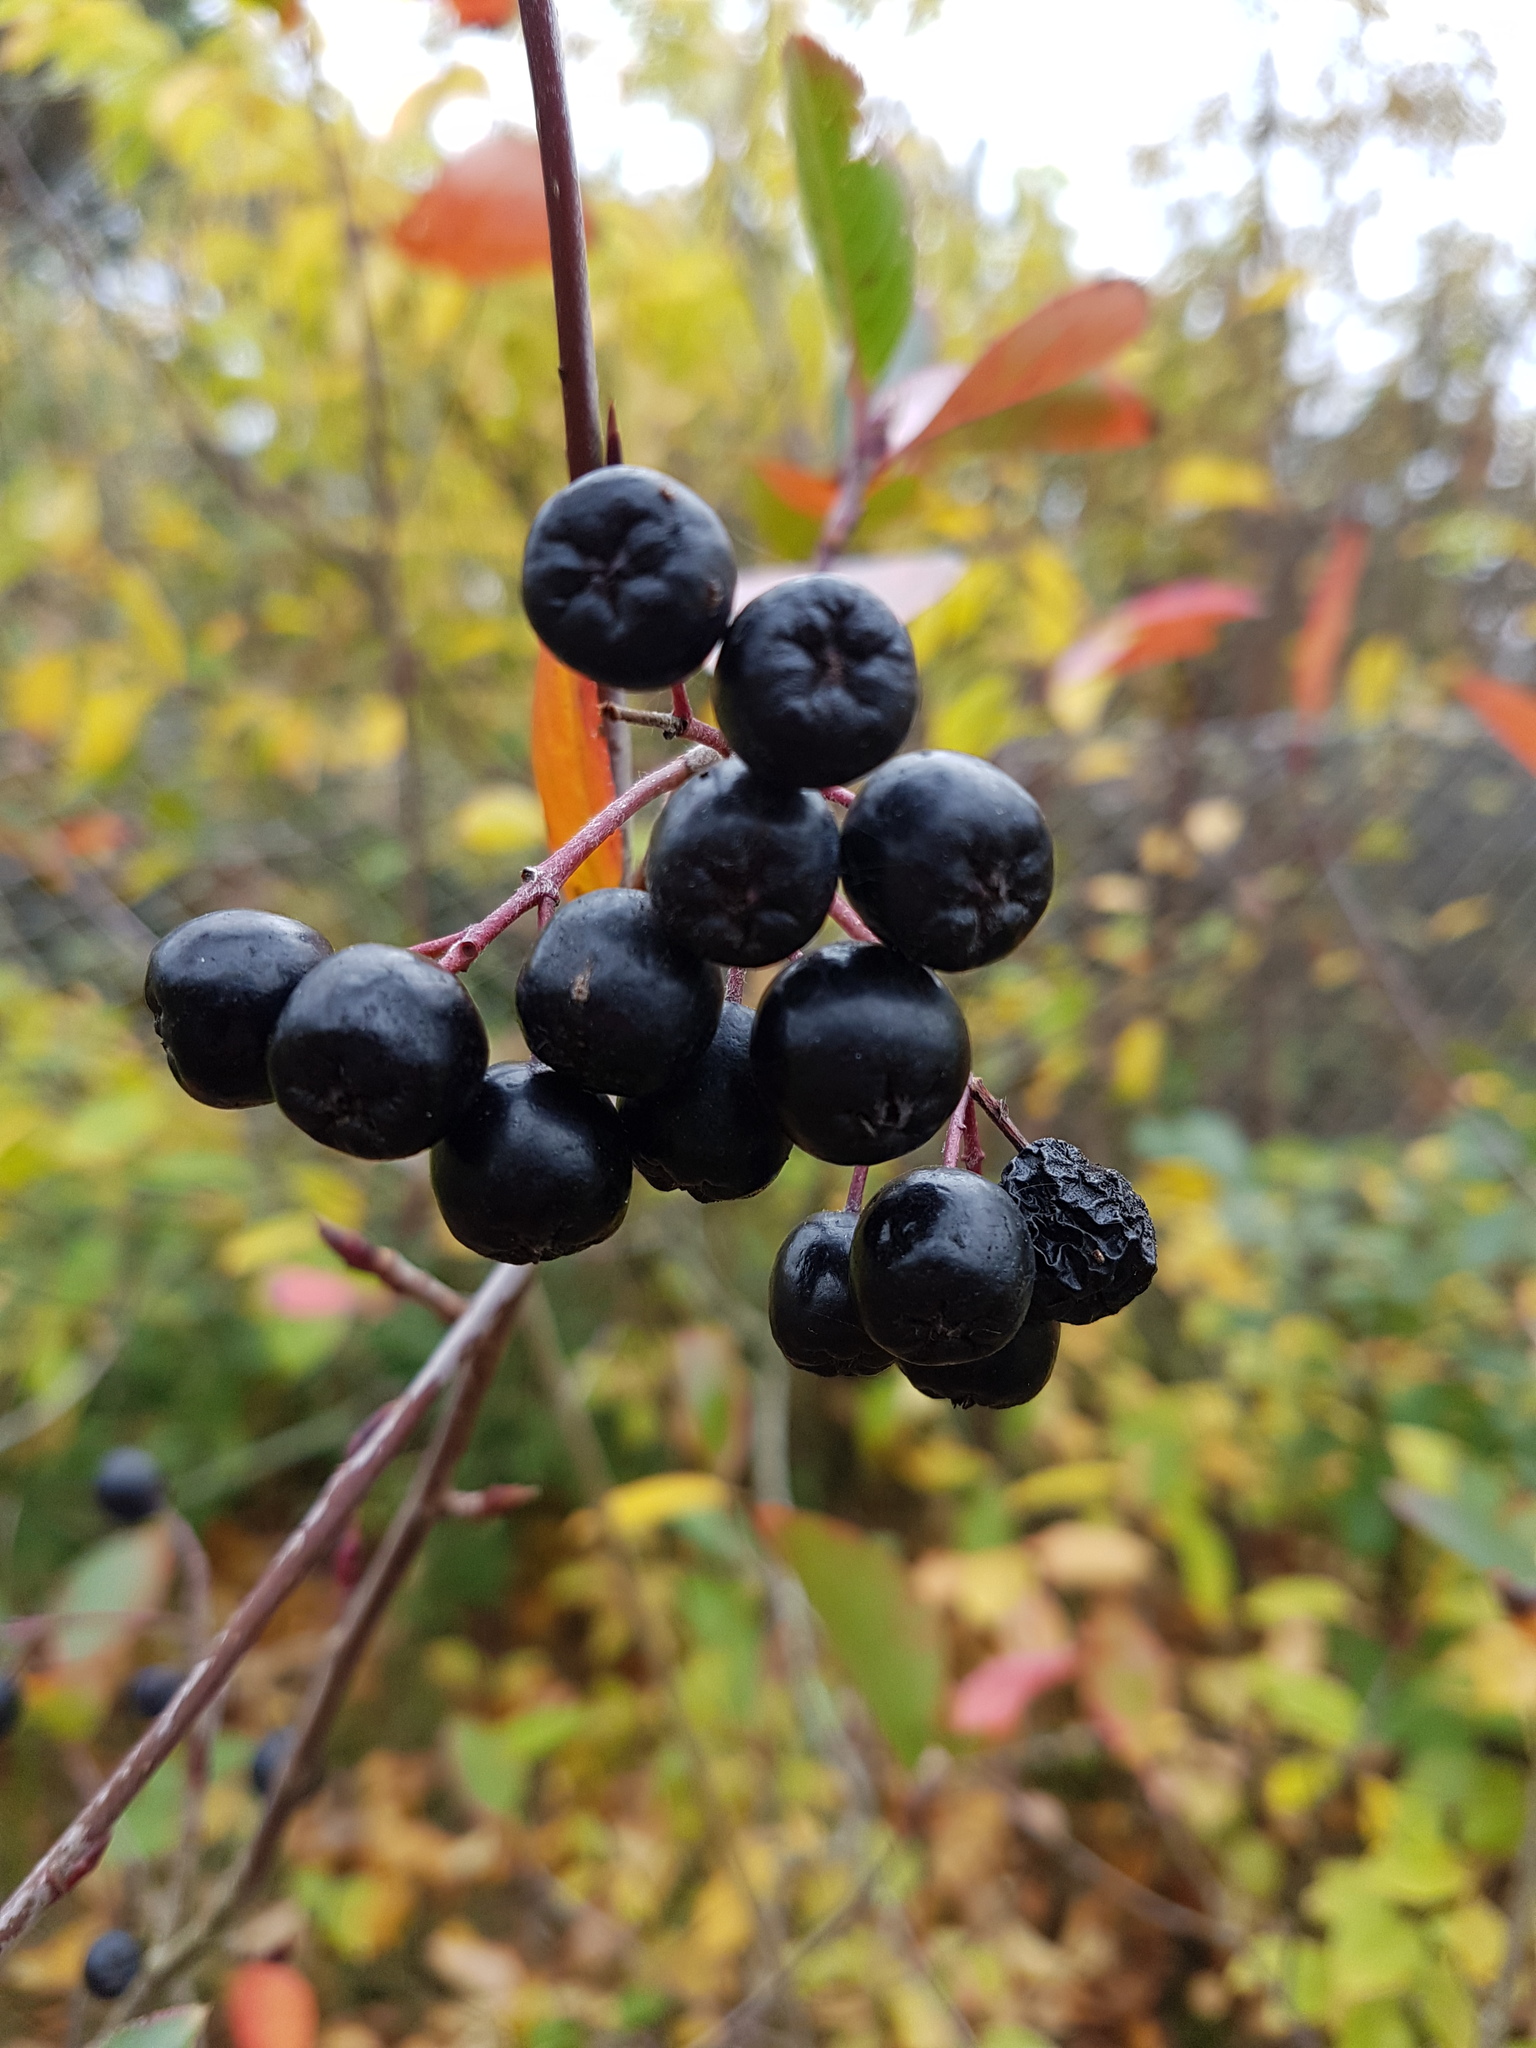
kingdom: Plantae
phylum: Tracheophyta
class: Magnoliopsida
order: Rosales
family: Rosaceae
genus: Aronia
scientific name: Aronia melanocarpa
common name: Black chokeberry
